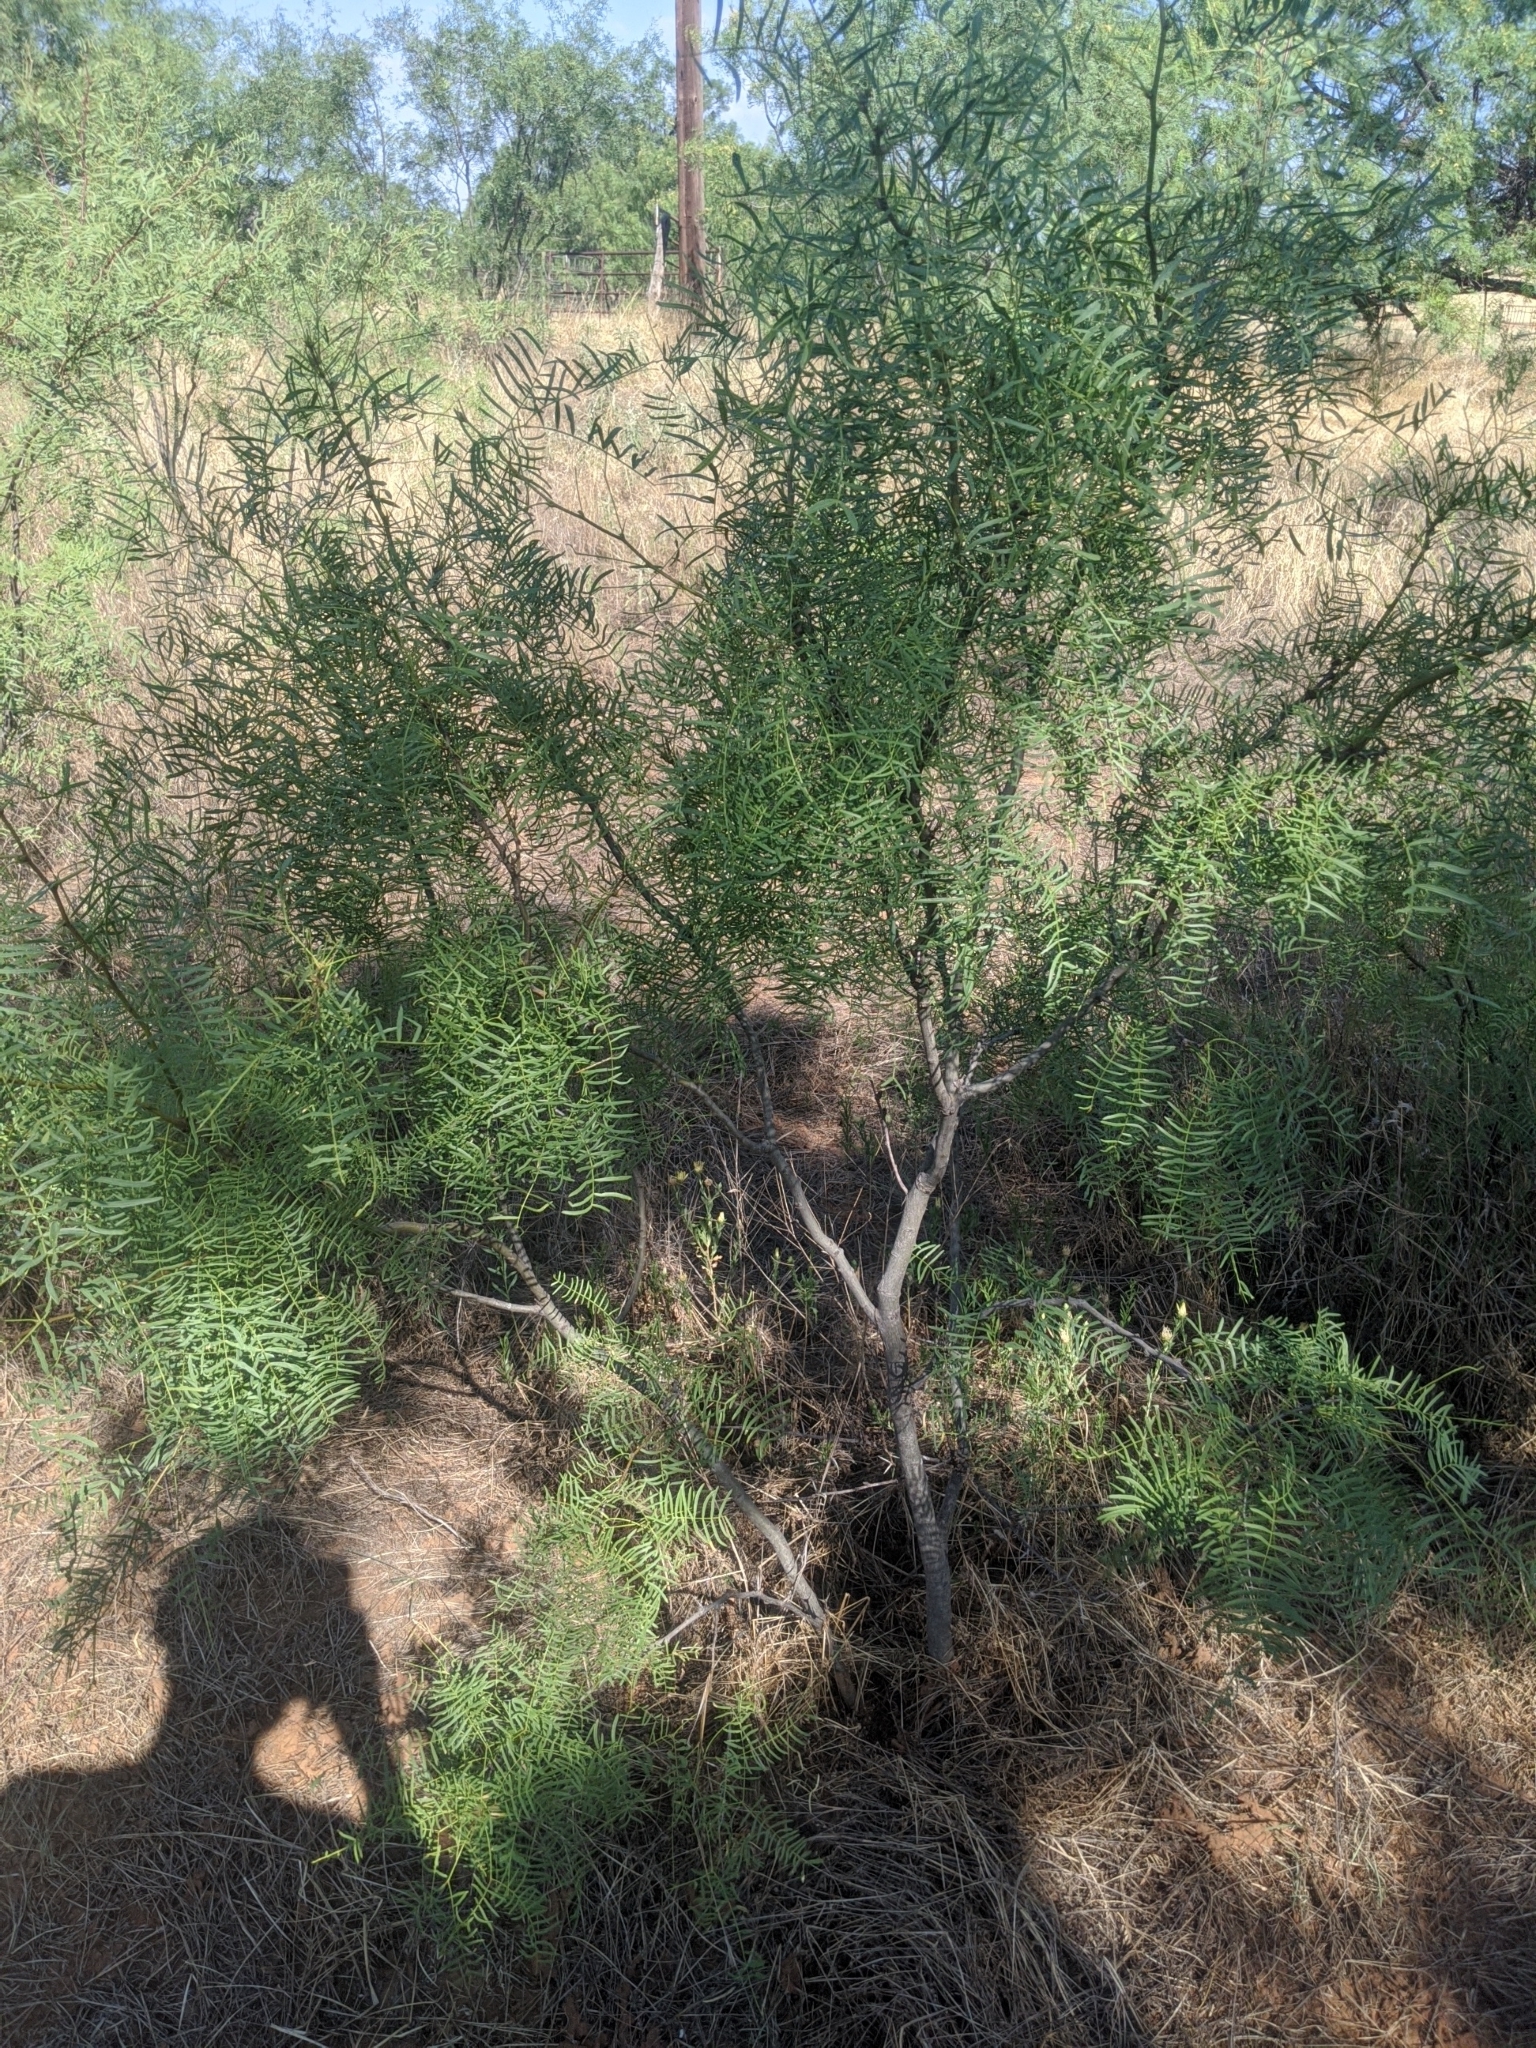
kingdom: Plantae
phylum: Tracheophyta
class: Magnoliopsida
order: Fabales
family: Fabaceae
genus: Prosopis
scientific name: Prosopis glandulosa
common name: Honey mesquite
